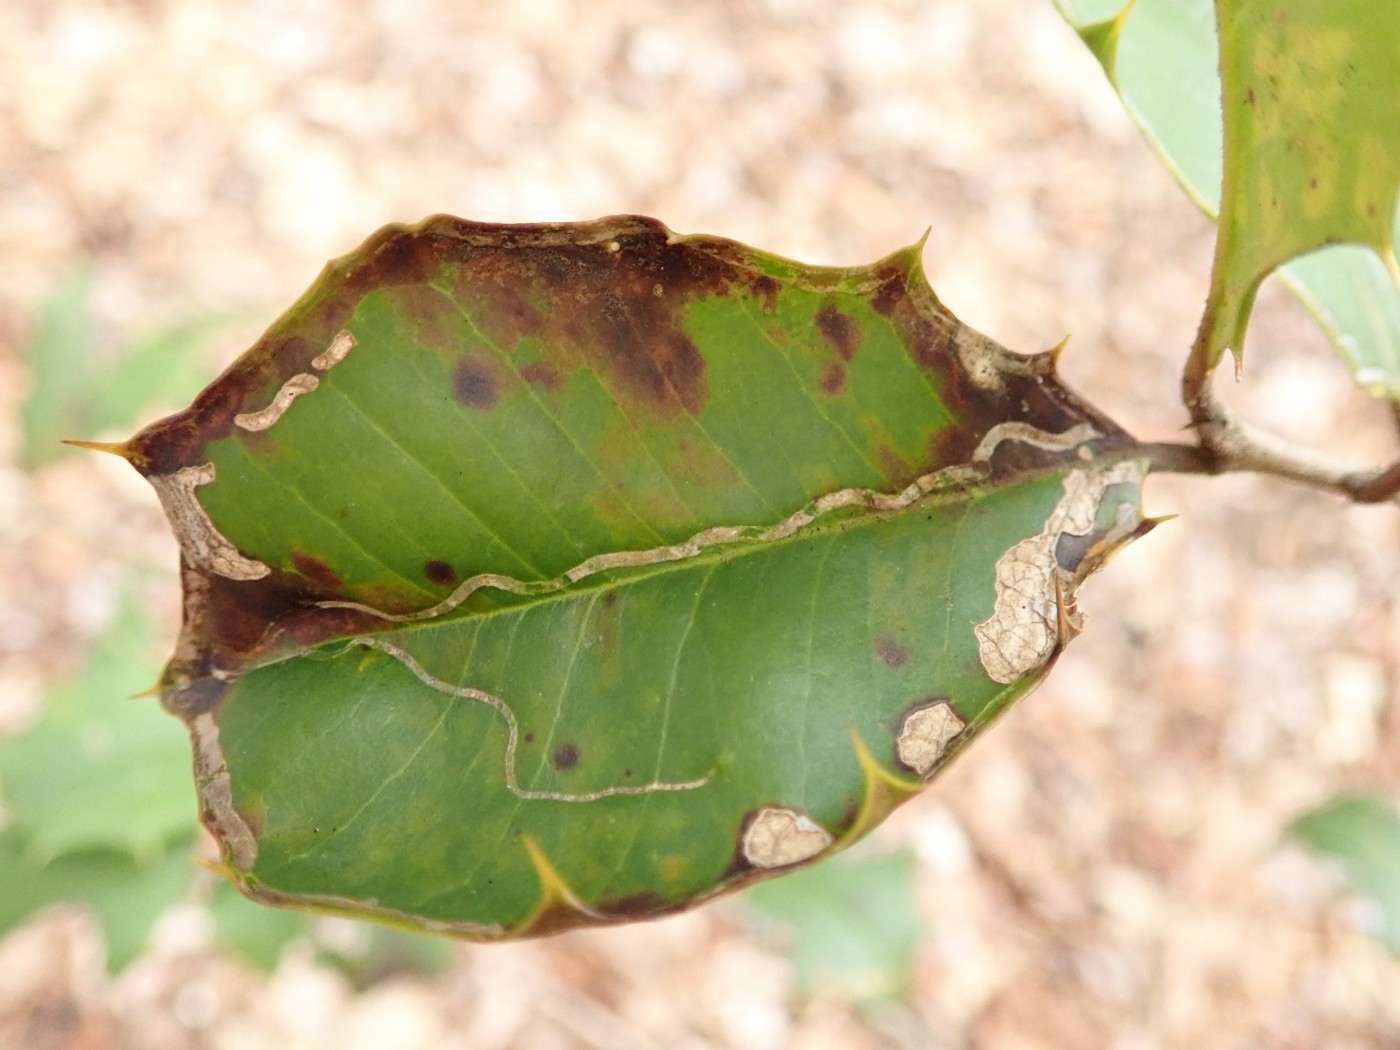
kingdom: Animalia
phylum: Arthropoda
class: Insecta
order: Diptera
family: Agromyzidae
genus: Phytomyza
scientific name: Phytomyza opacae
